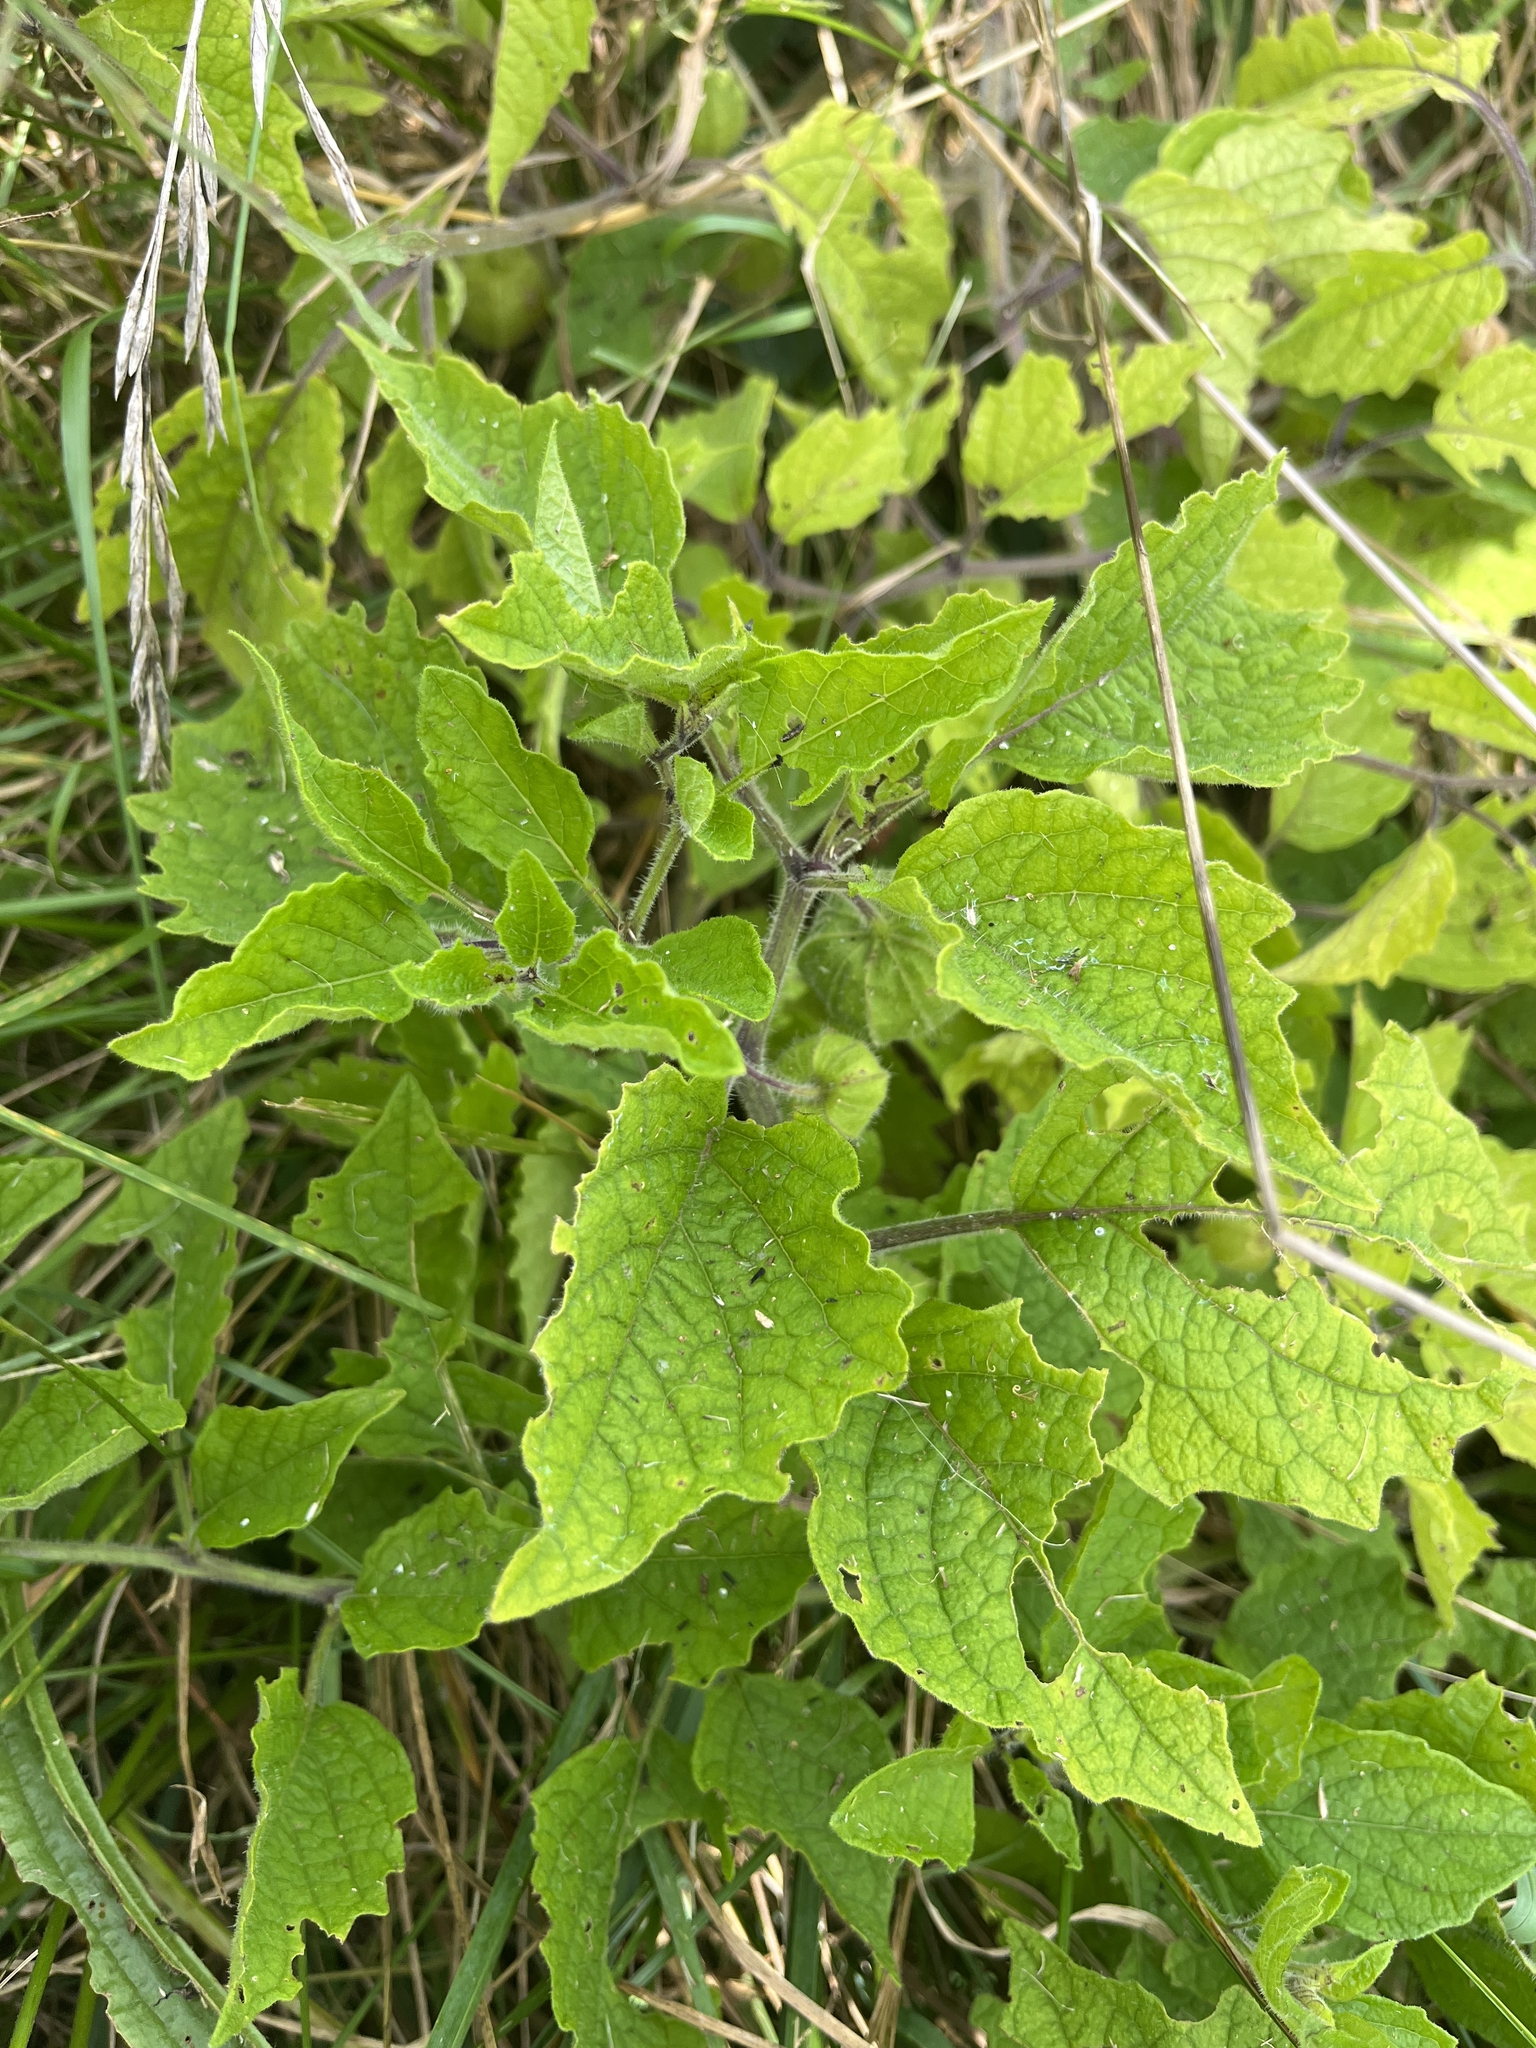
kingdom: Plantae
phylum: Tracheophyta
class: Magnoliopsida
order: Solanales
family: Solanaceae
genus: Physalis
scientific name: Physalis heterophylla
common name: Clammy ground-cherry
